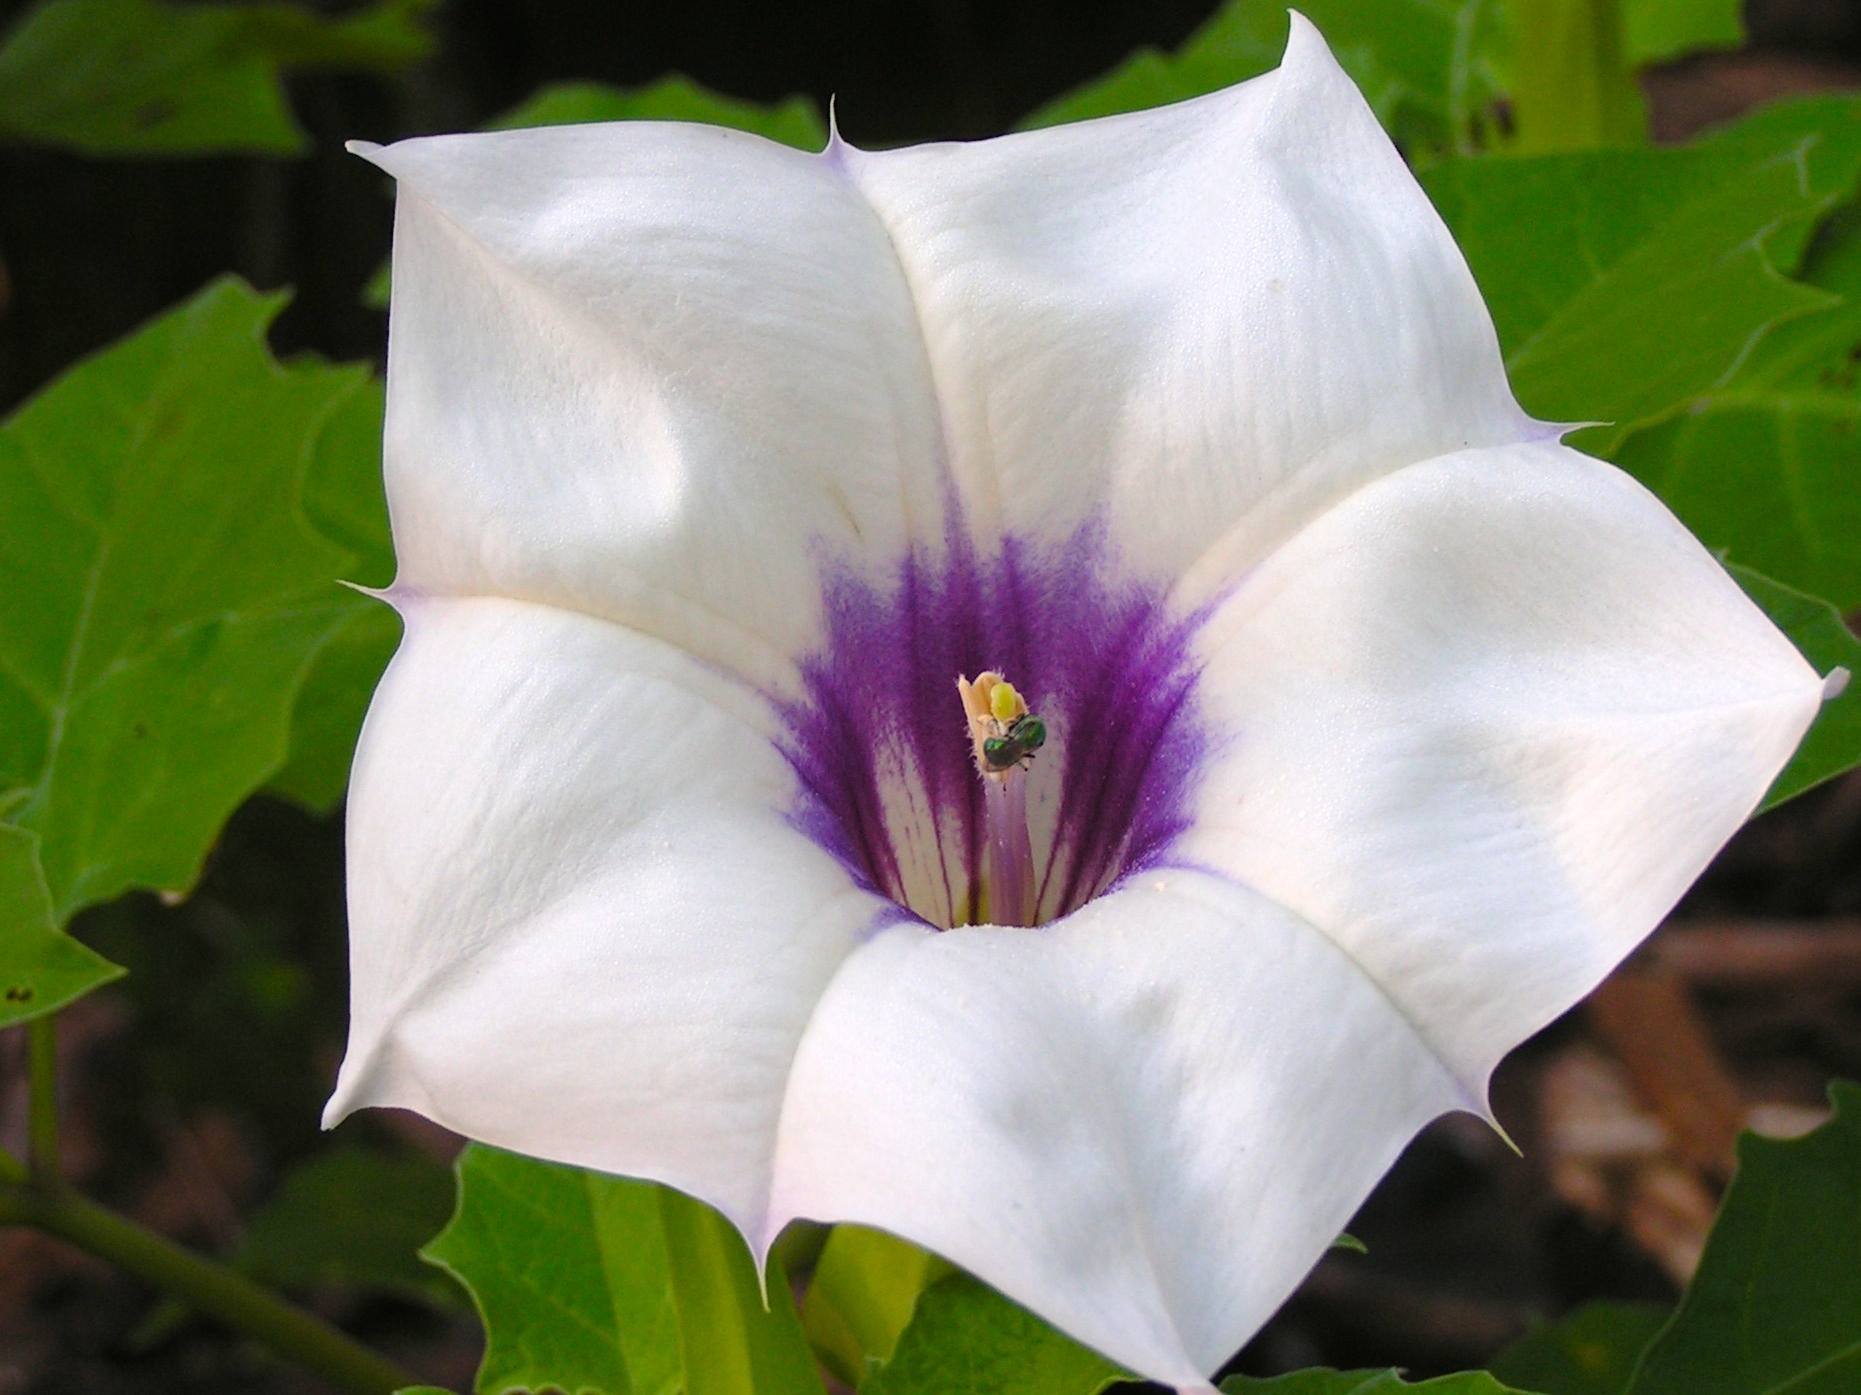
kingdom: Plantae
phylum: Tracheophyta
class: Magnoliopsida
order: Solanales
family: Solanaceae
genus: Datura
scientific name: Datura discolor
